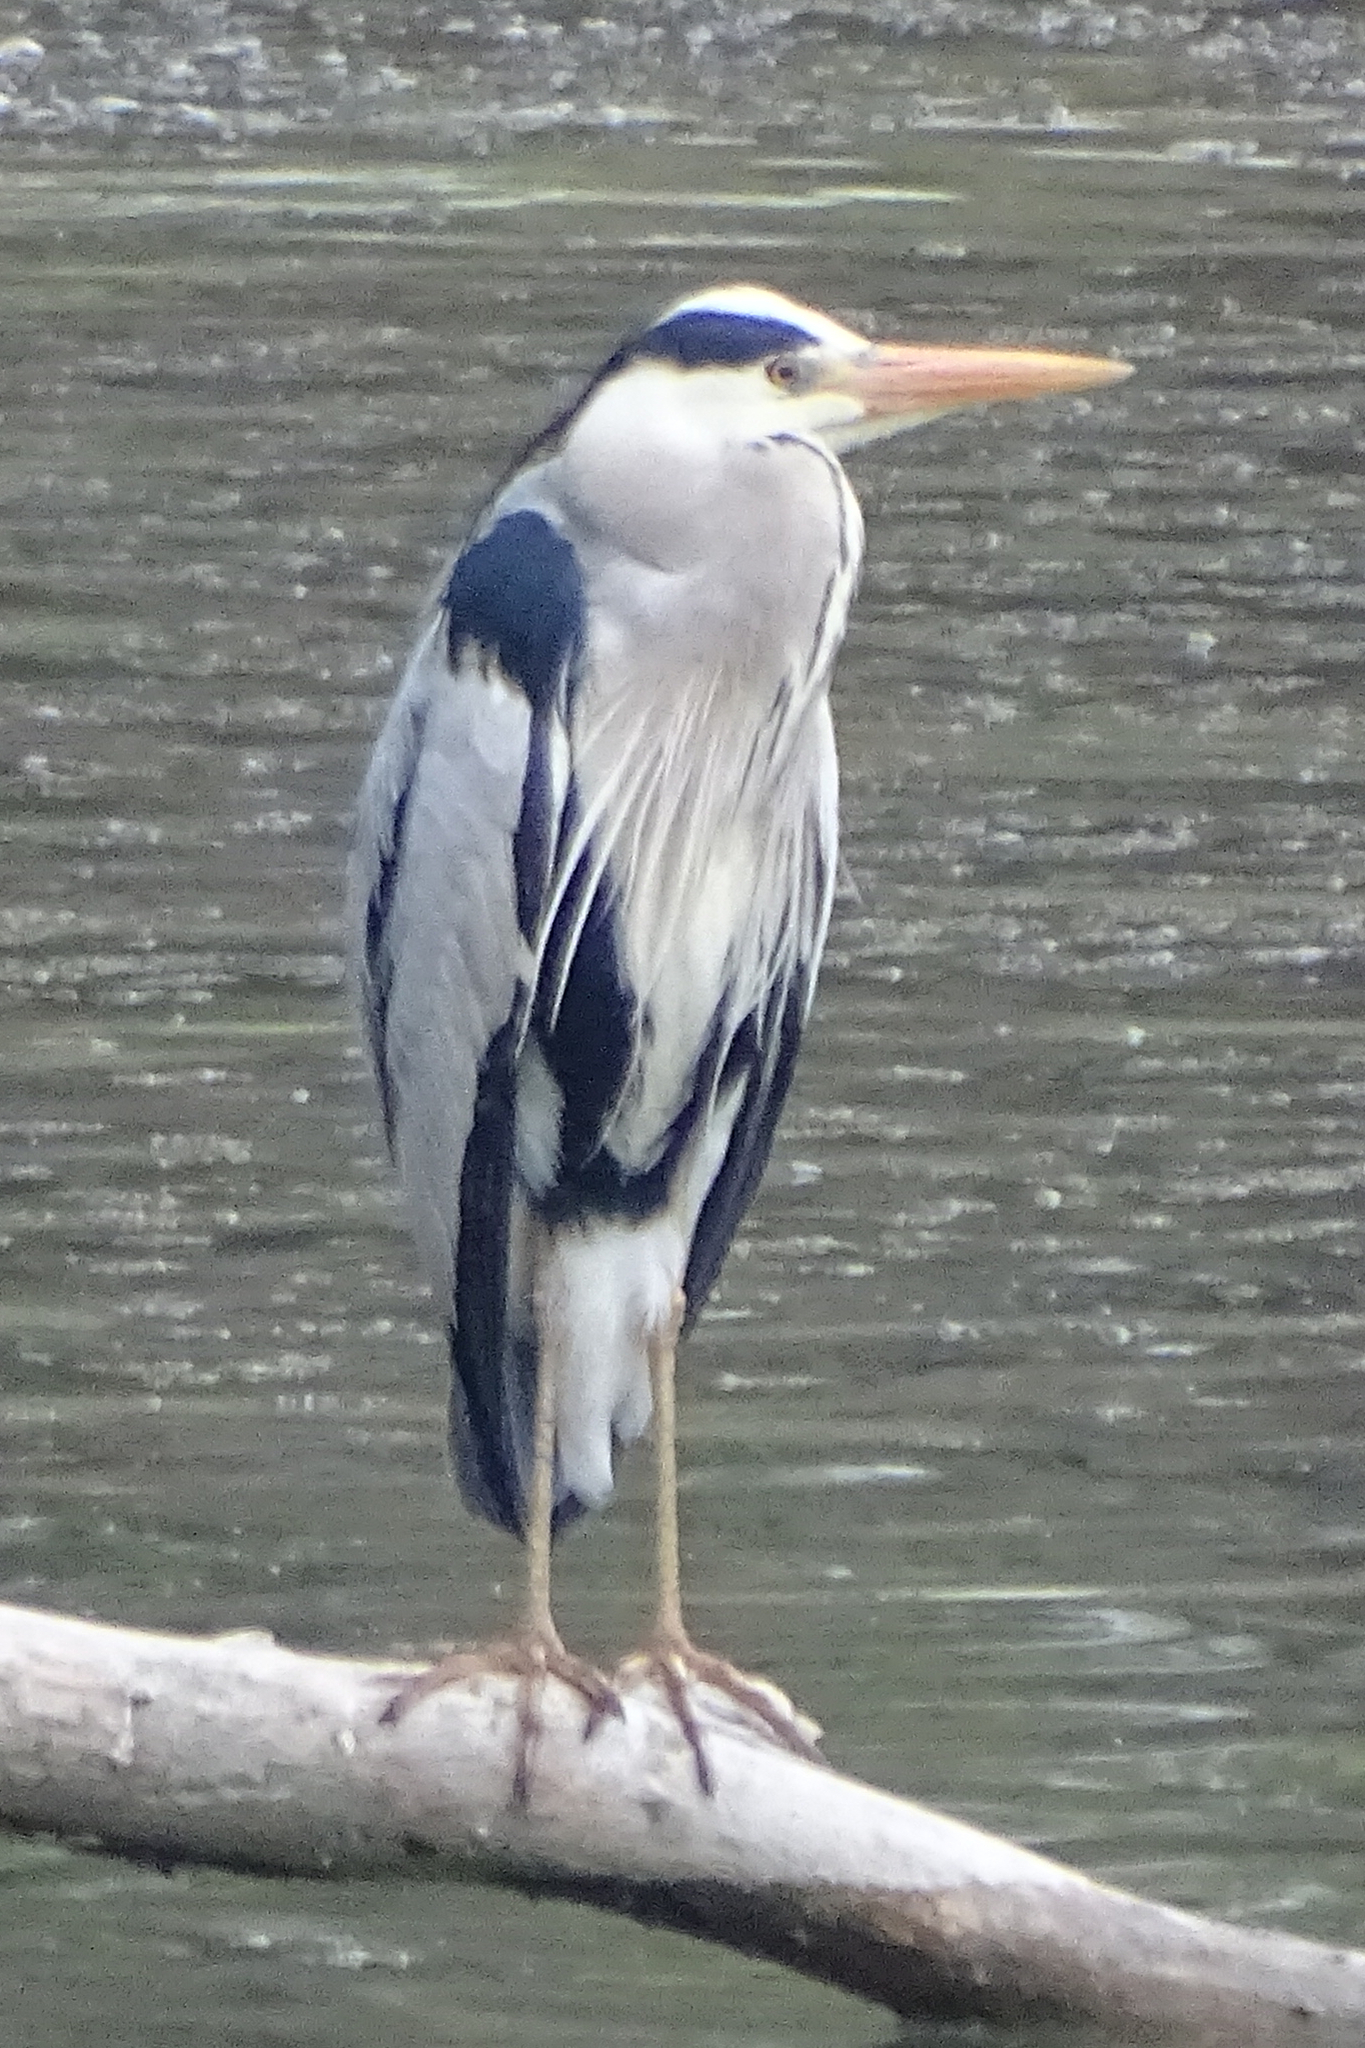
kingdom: Animalia
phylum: Chordata
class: Aves
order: Pelecaniformes
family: Ardeidae
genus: Ardea
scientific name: Ardea cinerea
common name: Grey heron
